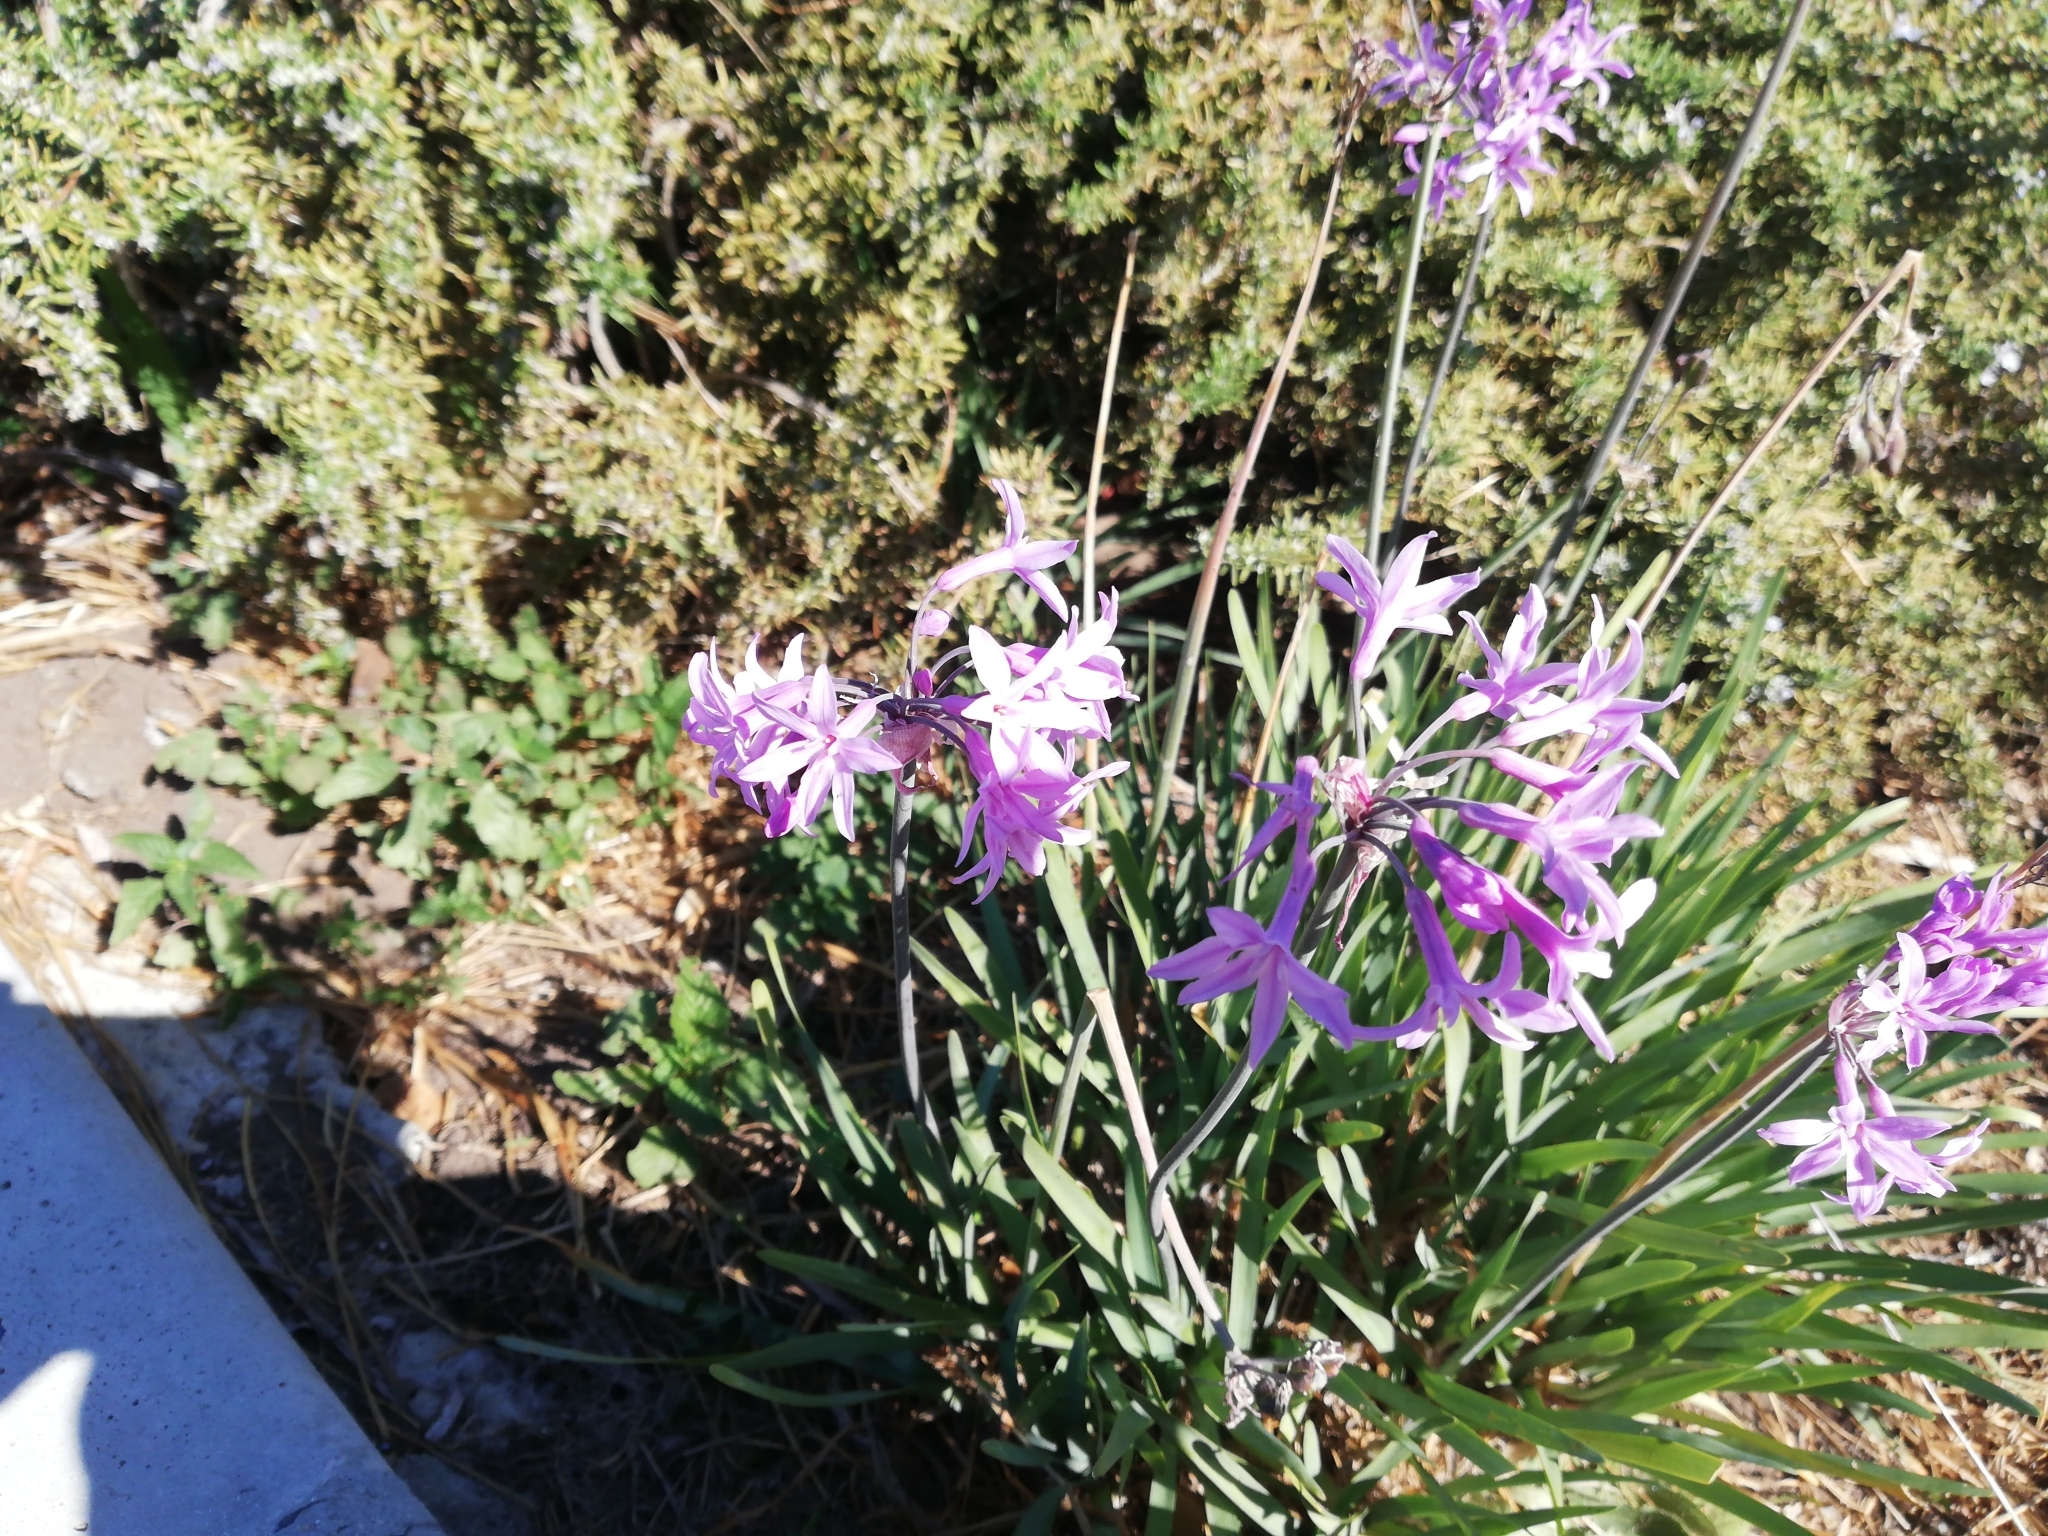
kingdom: Plantae
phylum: Tracheophyta
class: Liliopsida
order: Asparagales
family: Amaryllidaceae
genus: Tulbaghia
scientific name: Tulbaghia violacea
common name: Society garlic
